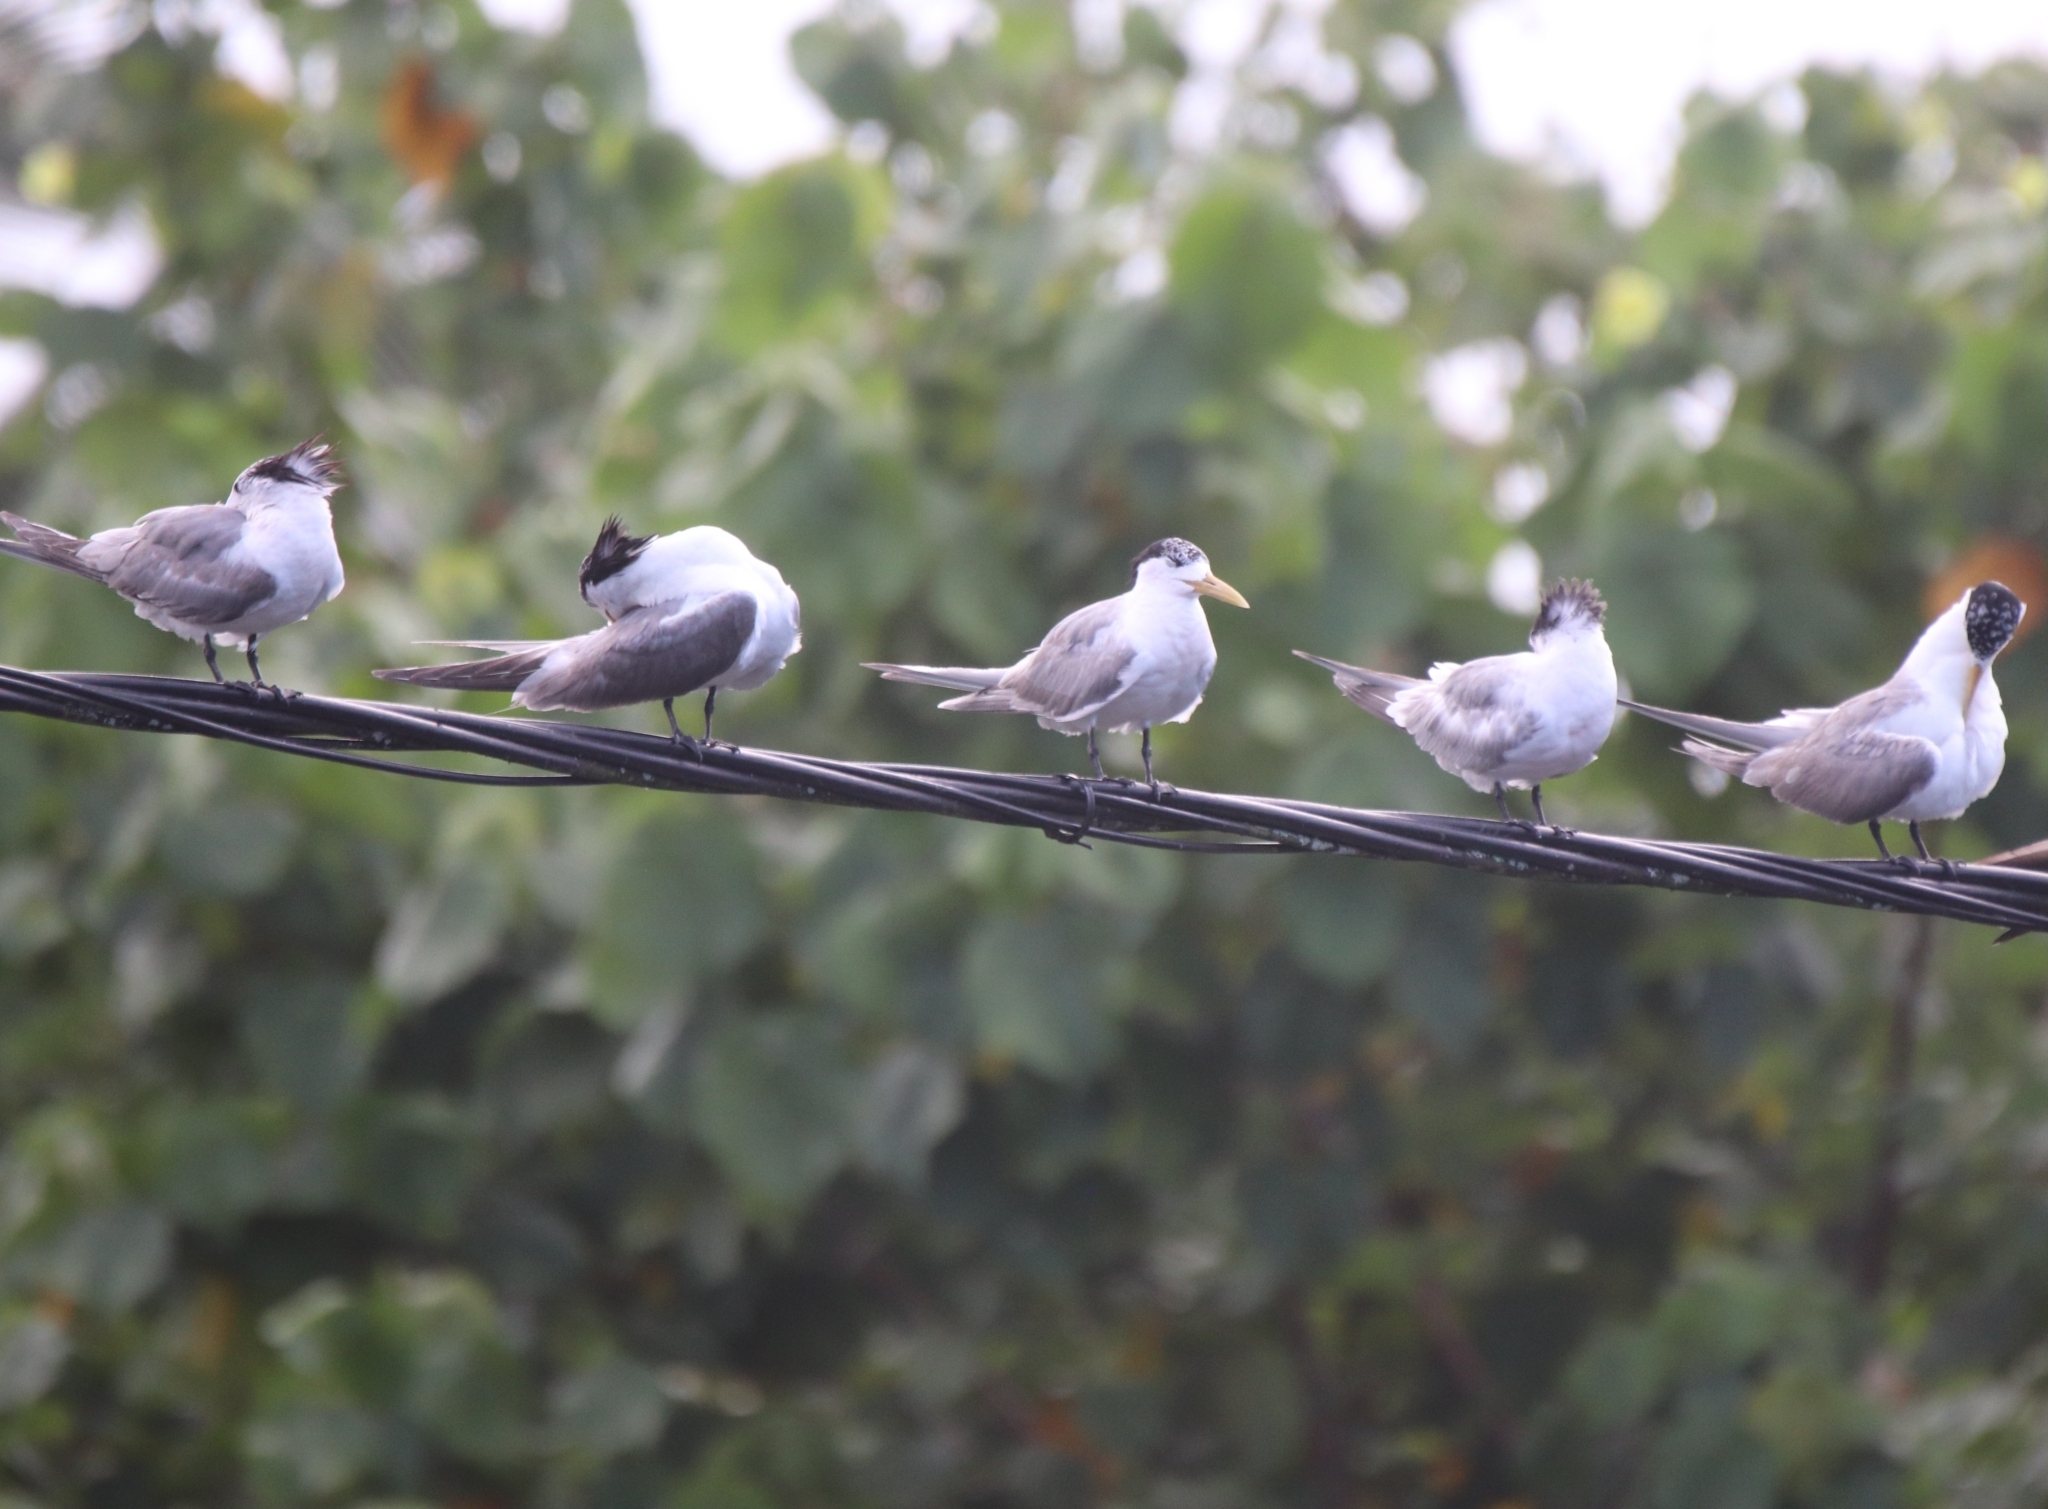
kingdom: Animalia
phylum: Chordata
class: Aves
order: Charadriiformes
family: Laridae
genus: Thalasseus
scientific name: Thalasseus bergii
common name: Greater crested tern
